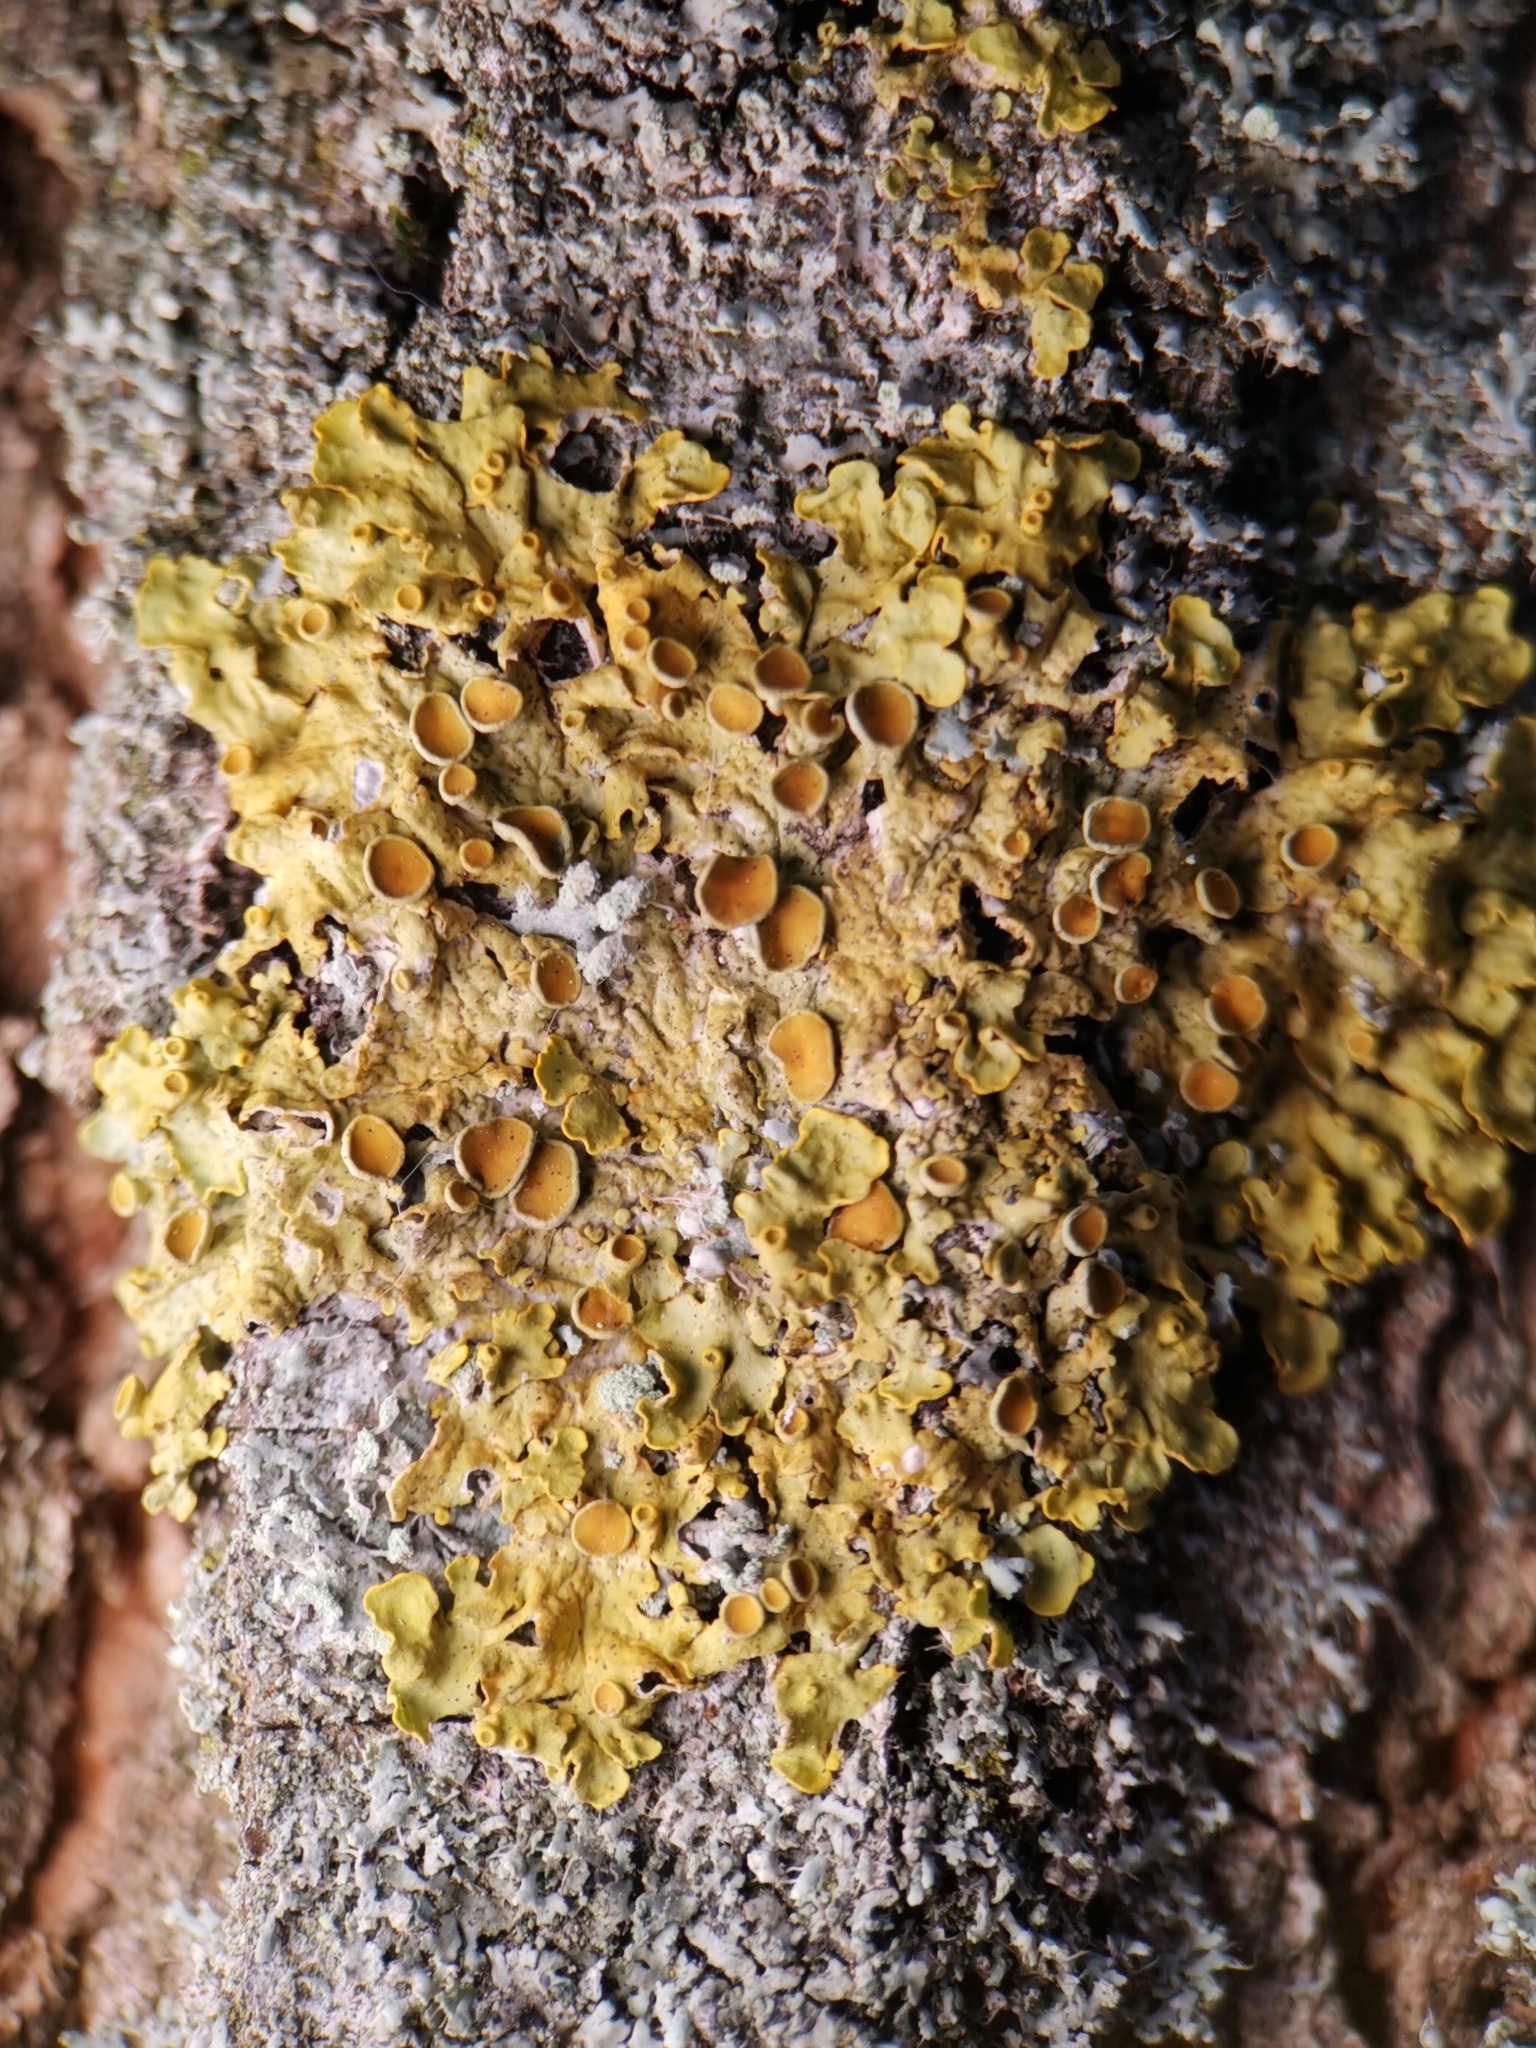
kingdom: Fungi
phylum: Ascomycota
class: Lecanoromycetes
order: Teloschistales
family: Teloschistaceae
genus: Xanthoria
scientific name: Xanthoria parietina
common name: Common orange lichen
